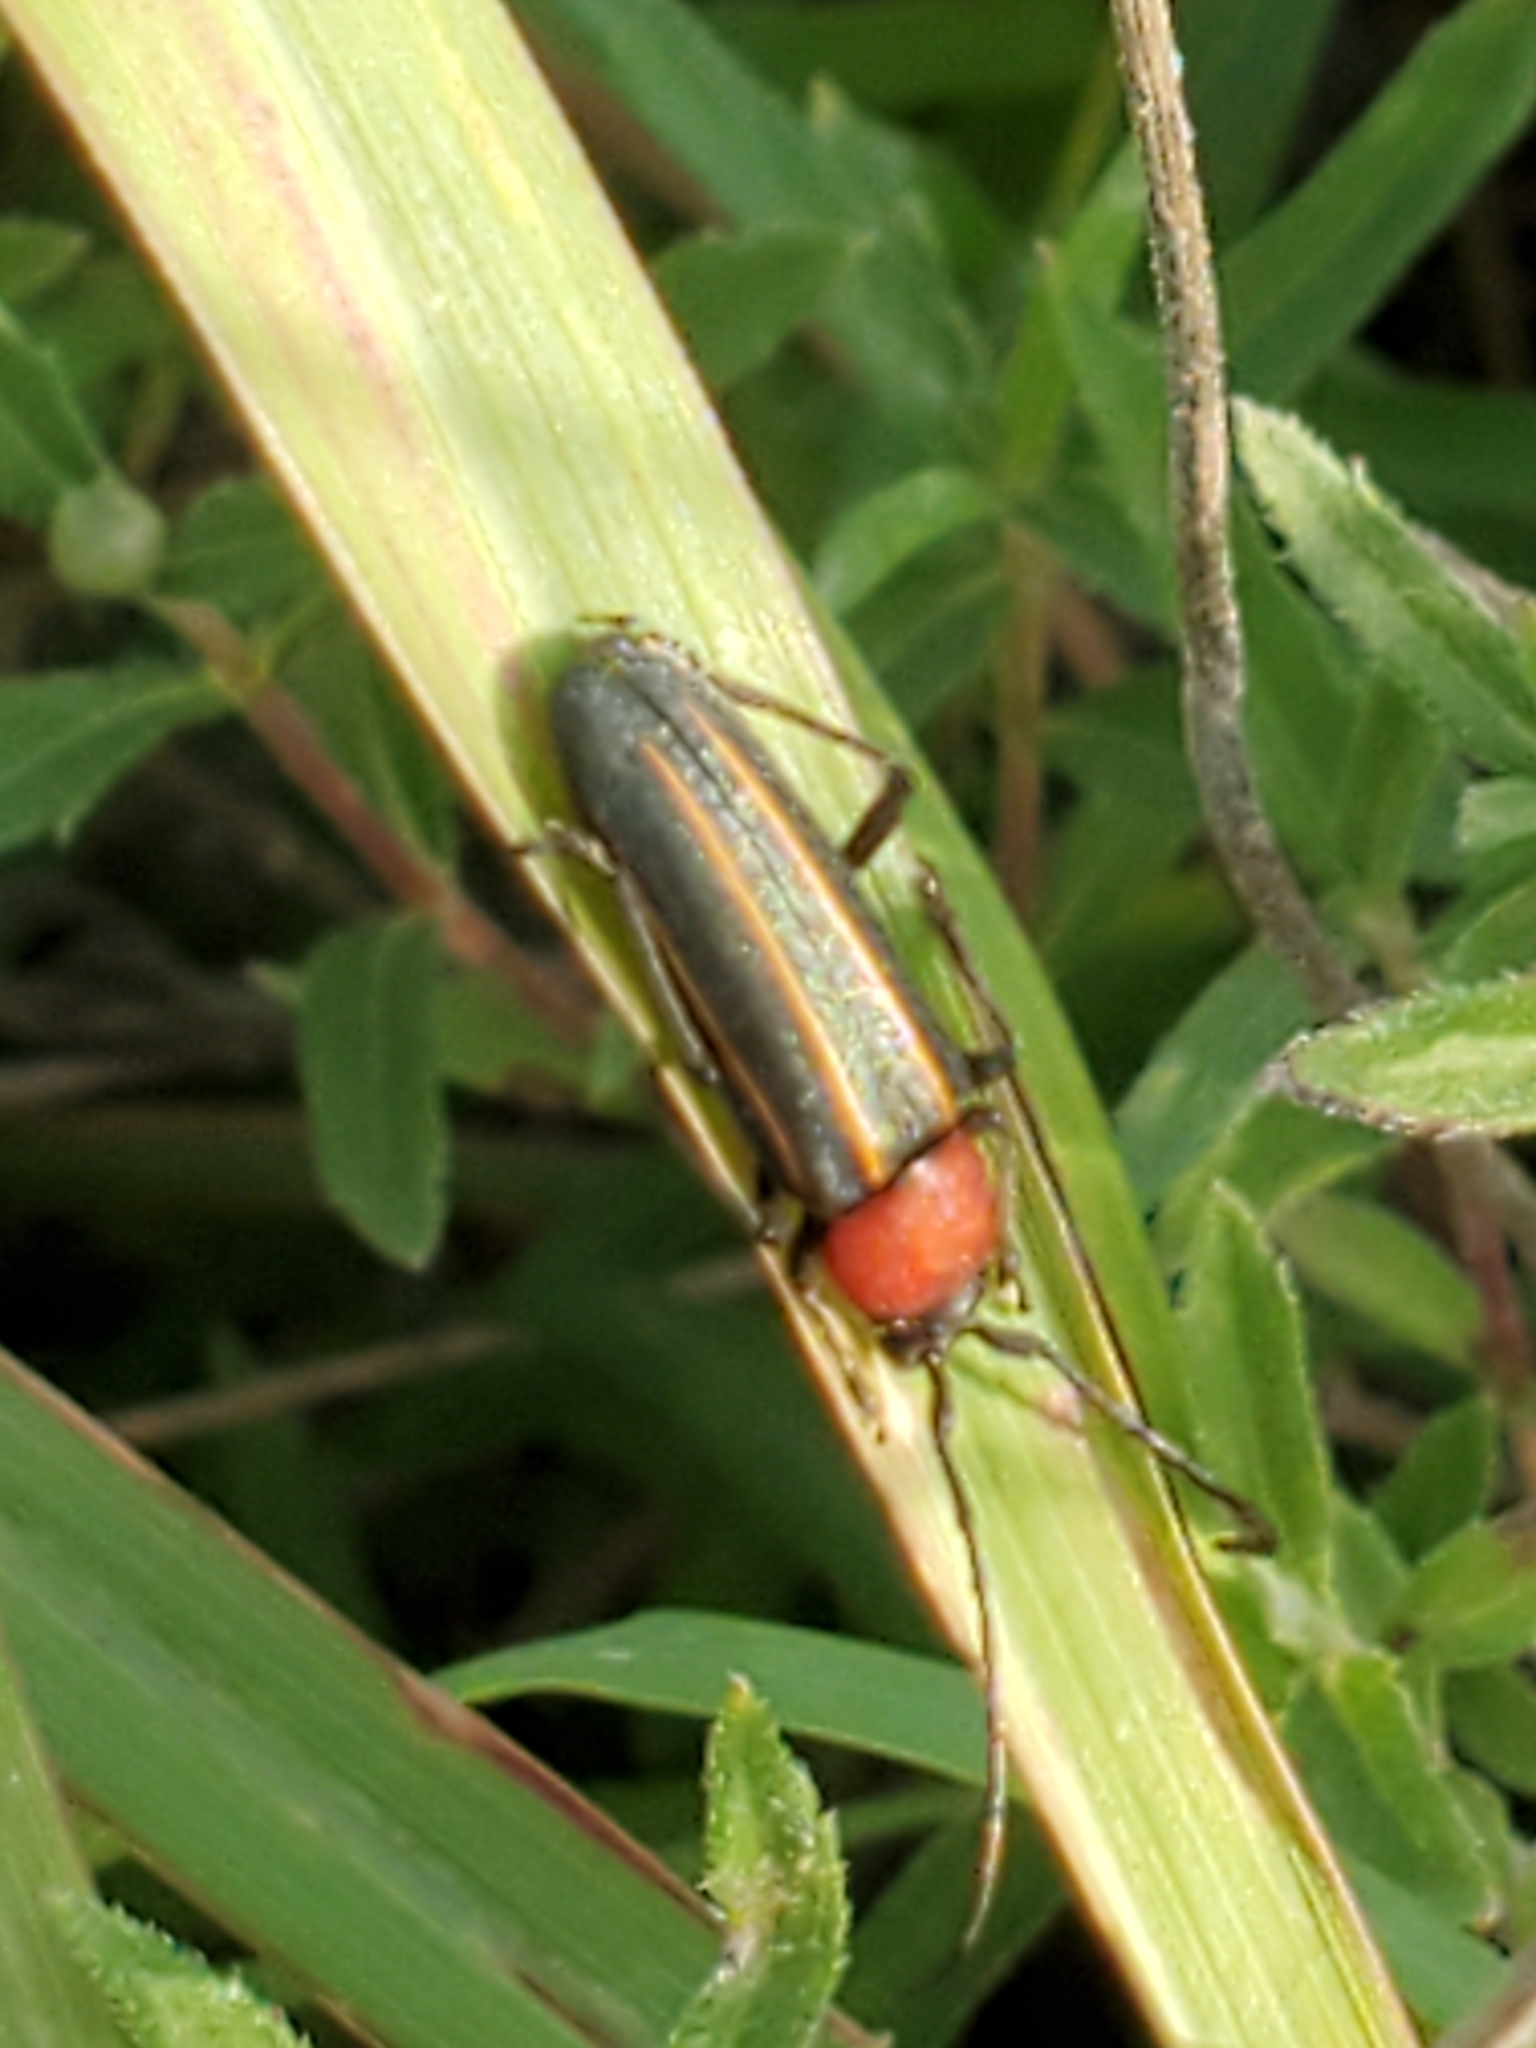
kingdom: Animalia
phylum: Arthropoda
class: Insecta
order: Coleoptera
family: Cerambycidae
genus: Mannophorus
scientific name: Mannophorus laetus
